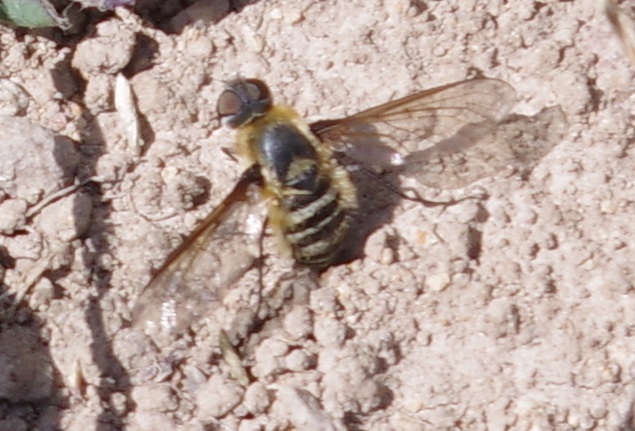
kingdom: Animalia
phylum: Arthropoda
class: Insecta
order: Diptera
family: Bombyliidae
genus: Villa
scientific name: Villa hottentotta
